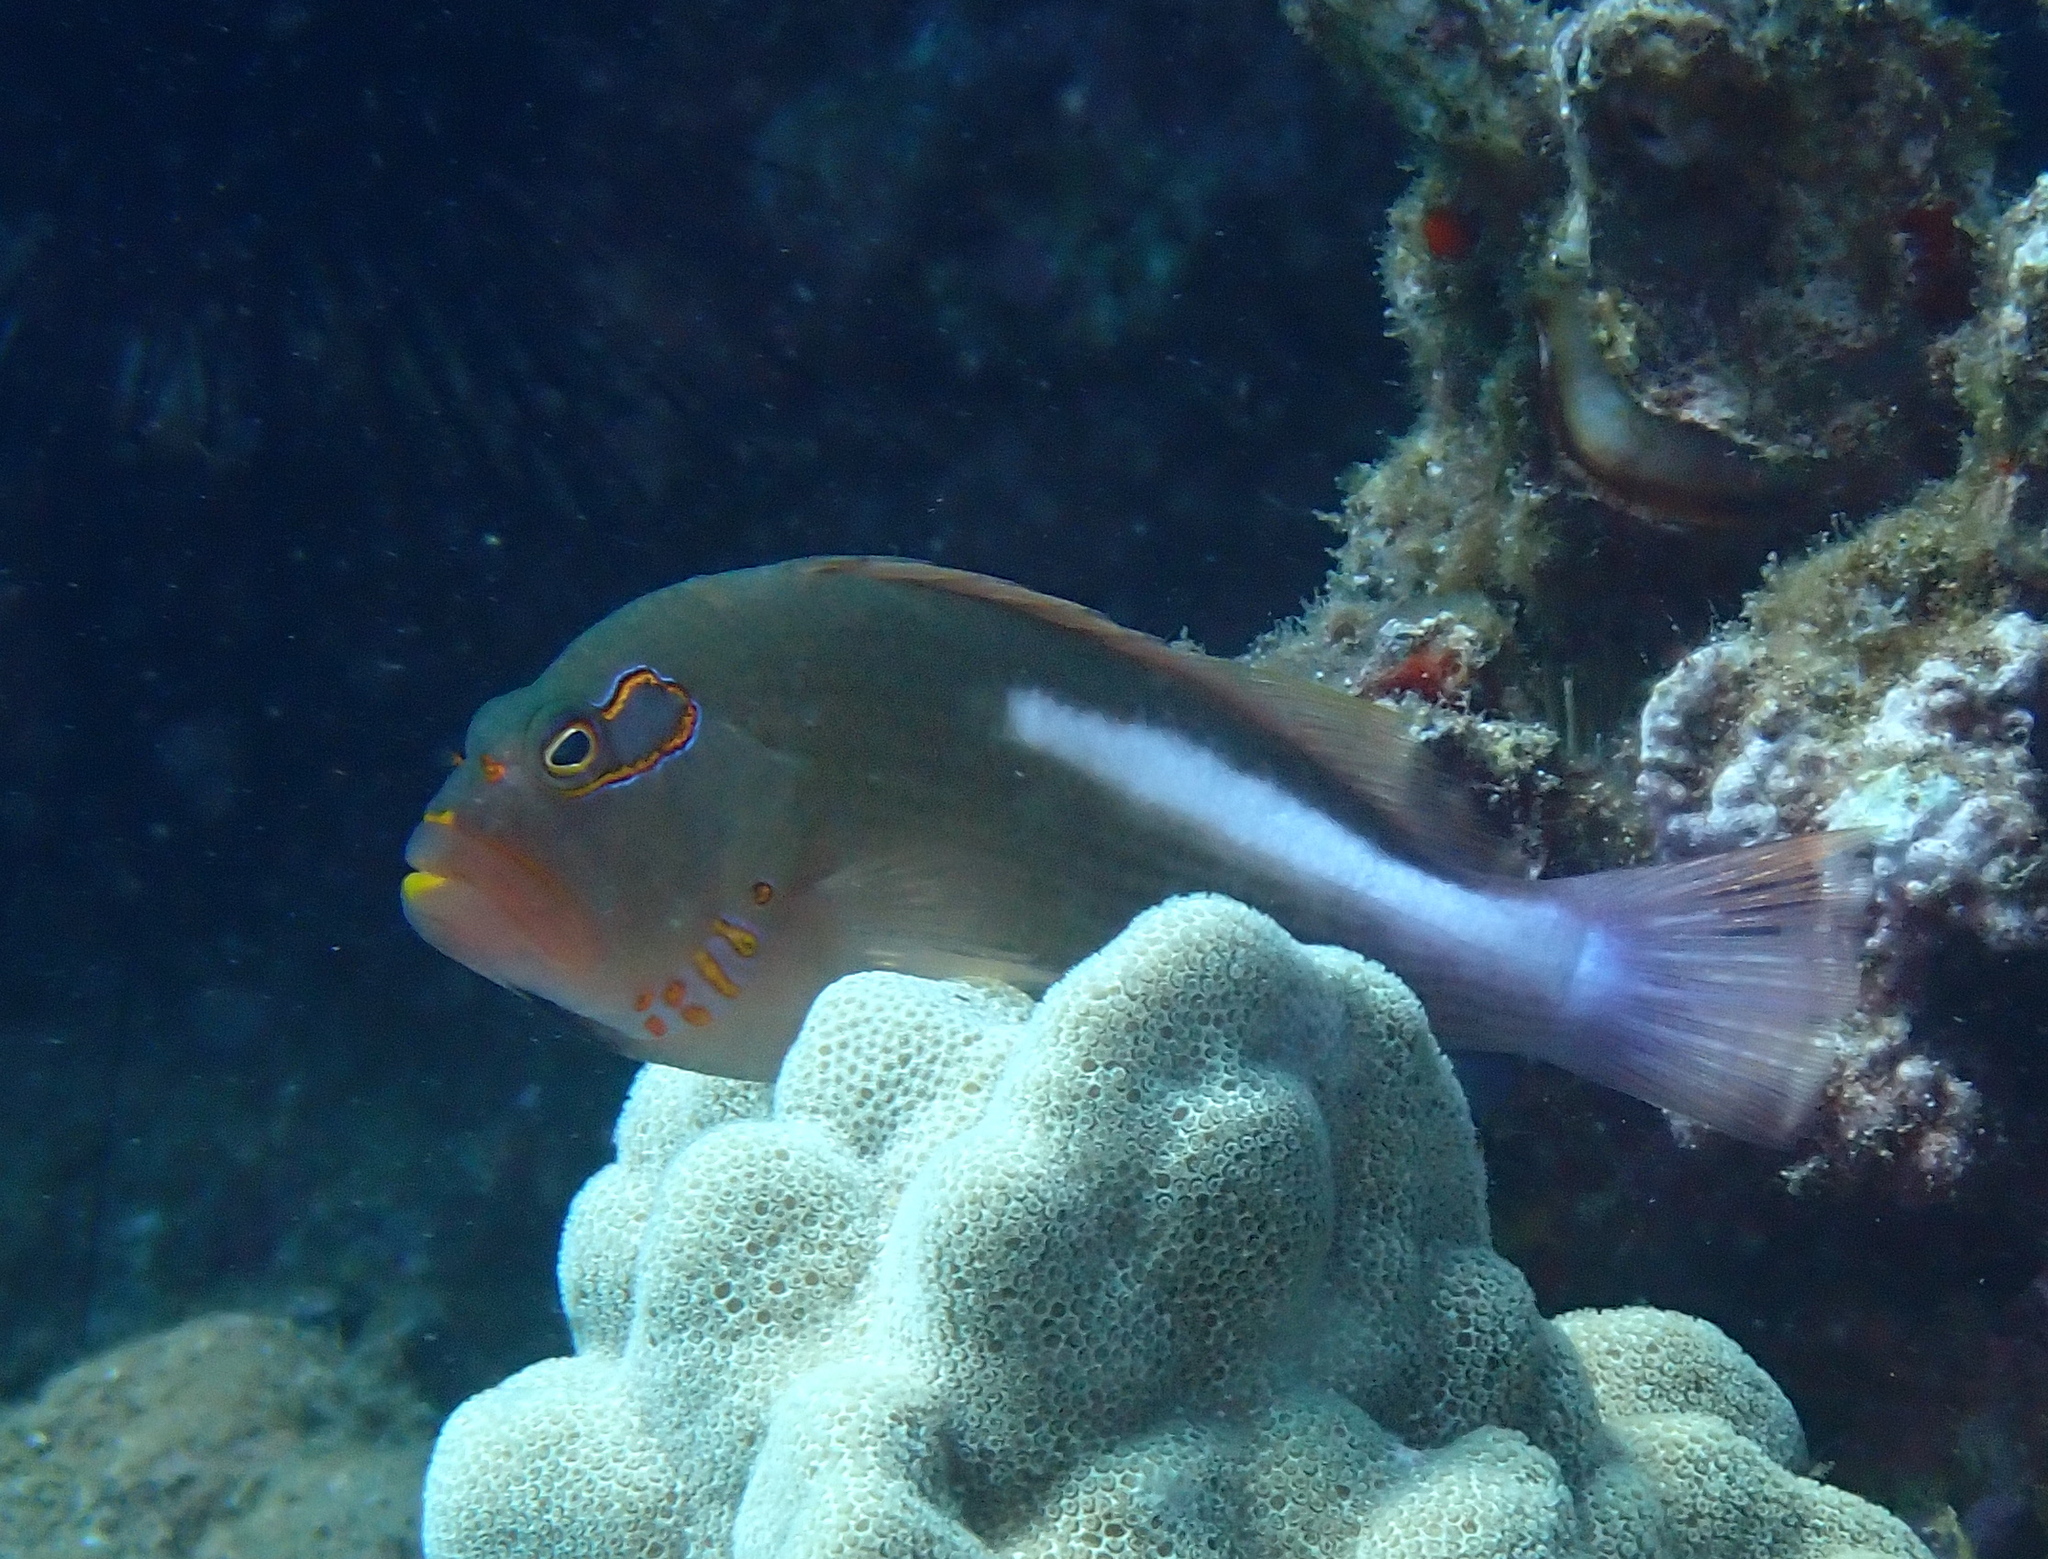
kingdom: Animalia
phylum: Chordata
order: Perciformes
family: Cirrhitidae
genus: Paracirrhites
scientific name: Paracirrhites arcatus
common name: Arc-eye hawkfish
